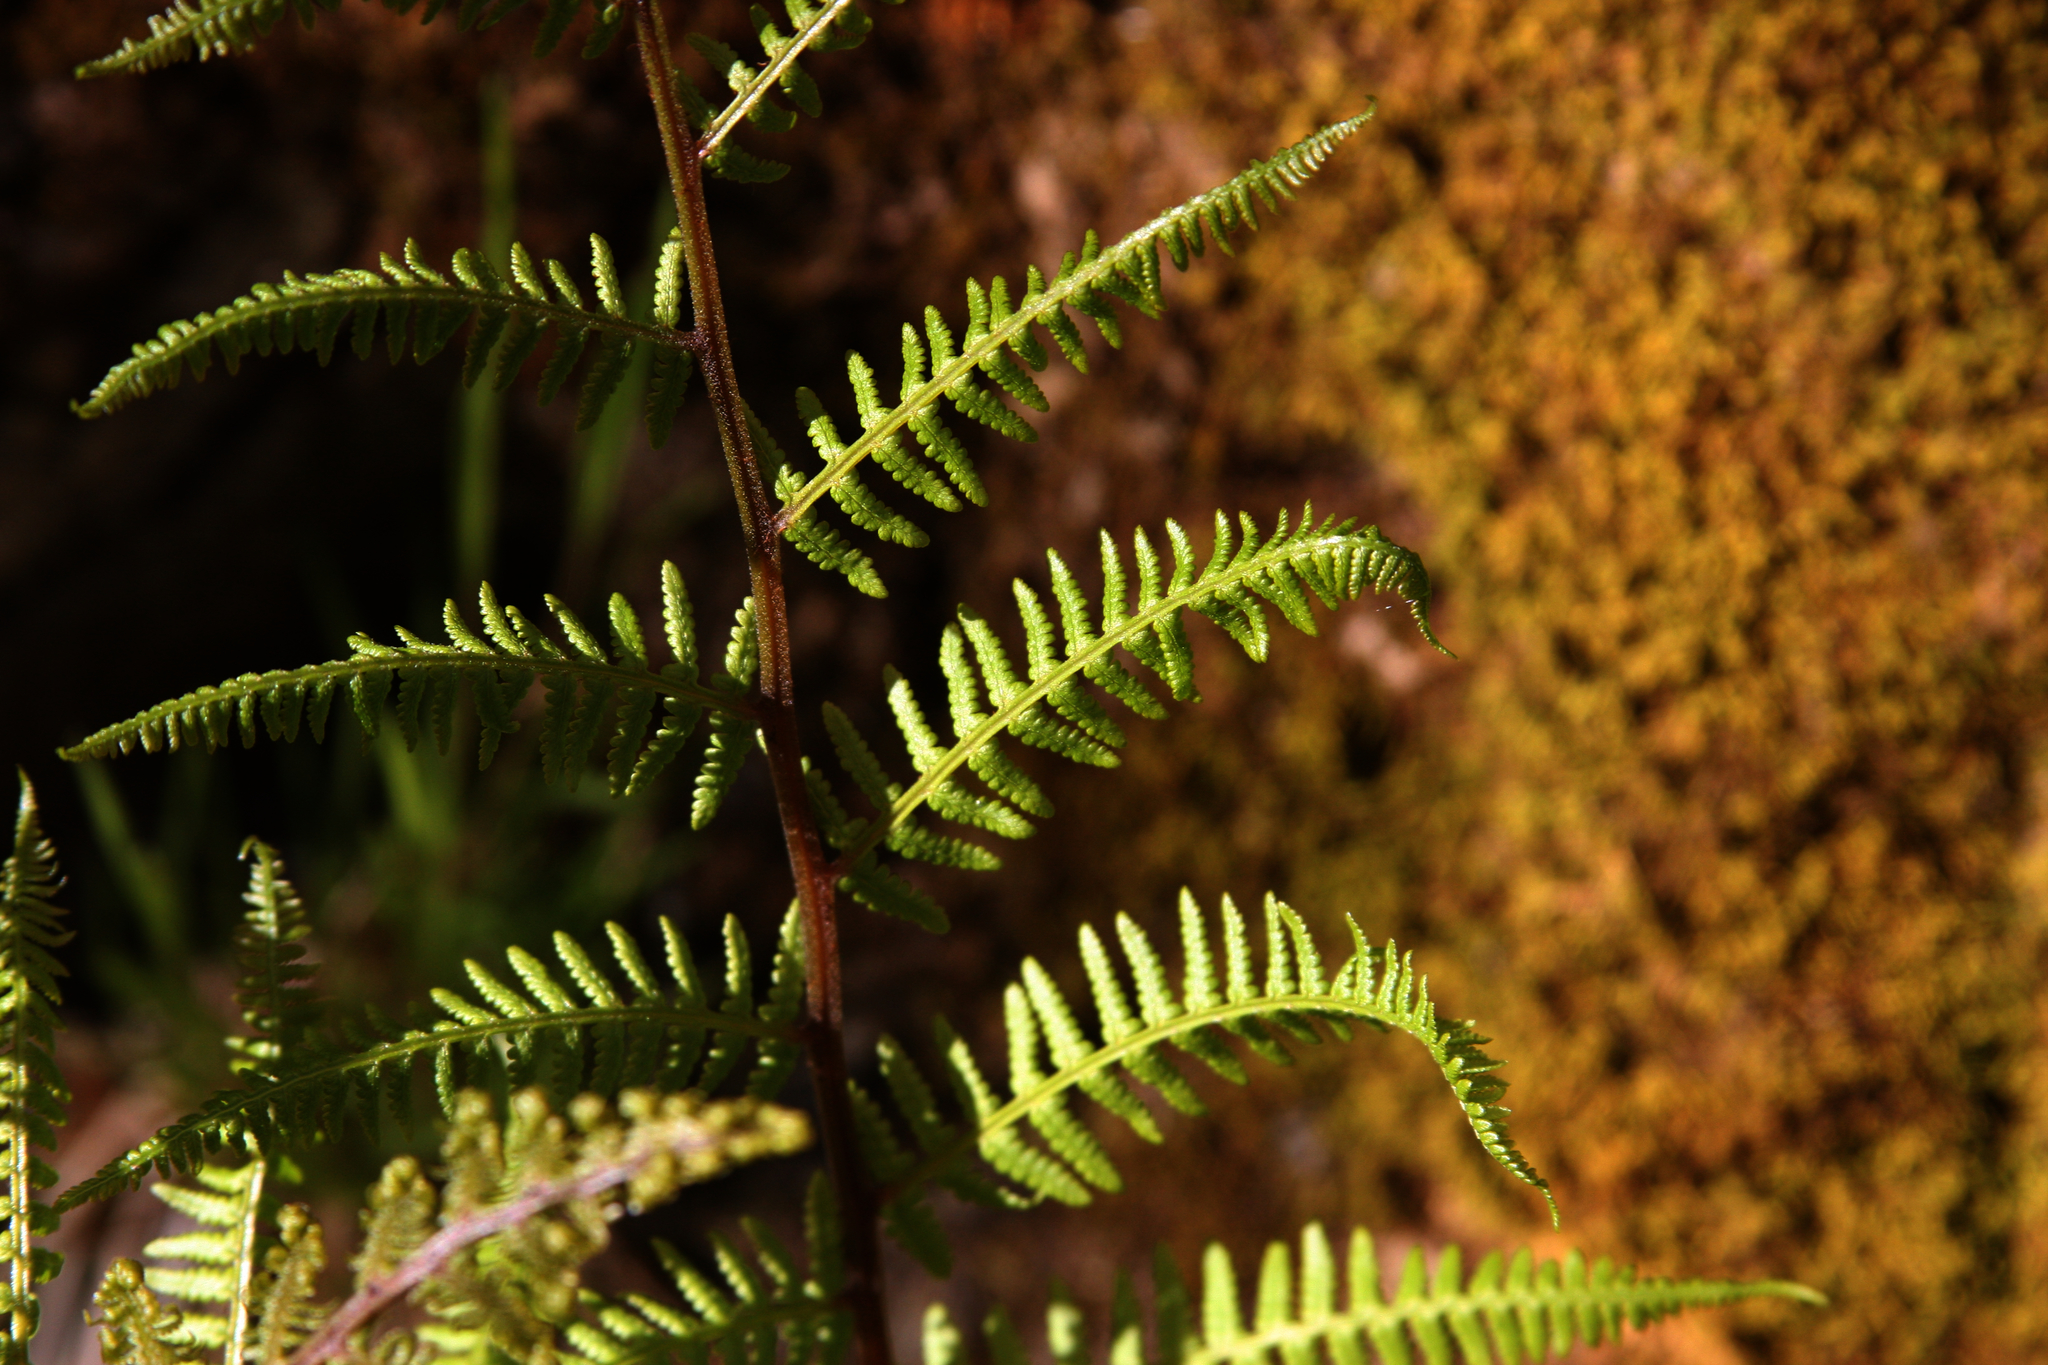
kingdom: Plantae
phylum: Tracheophyta
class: Polypodiopsida
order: Polypodiales
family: Athyriaceae
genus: Athyrium
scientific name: Athyrium angustum
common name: Northern lady fern
